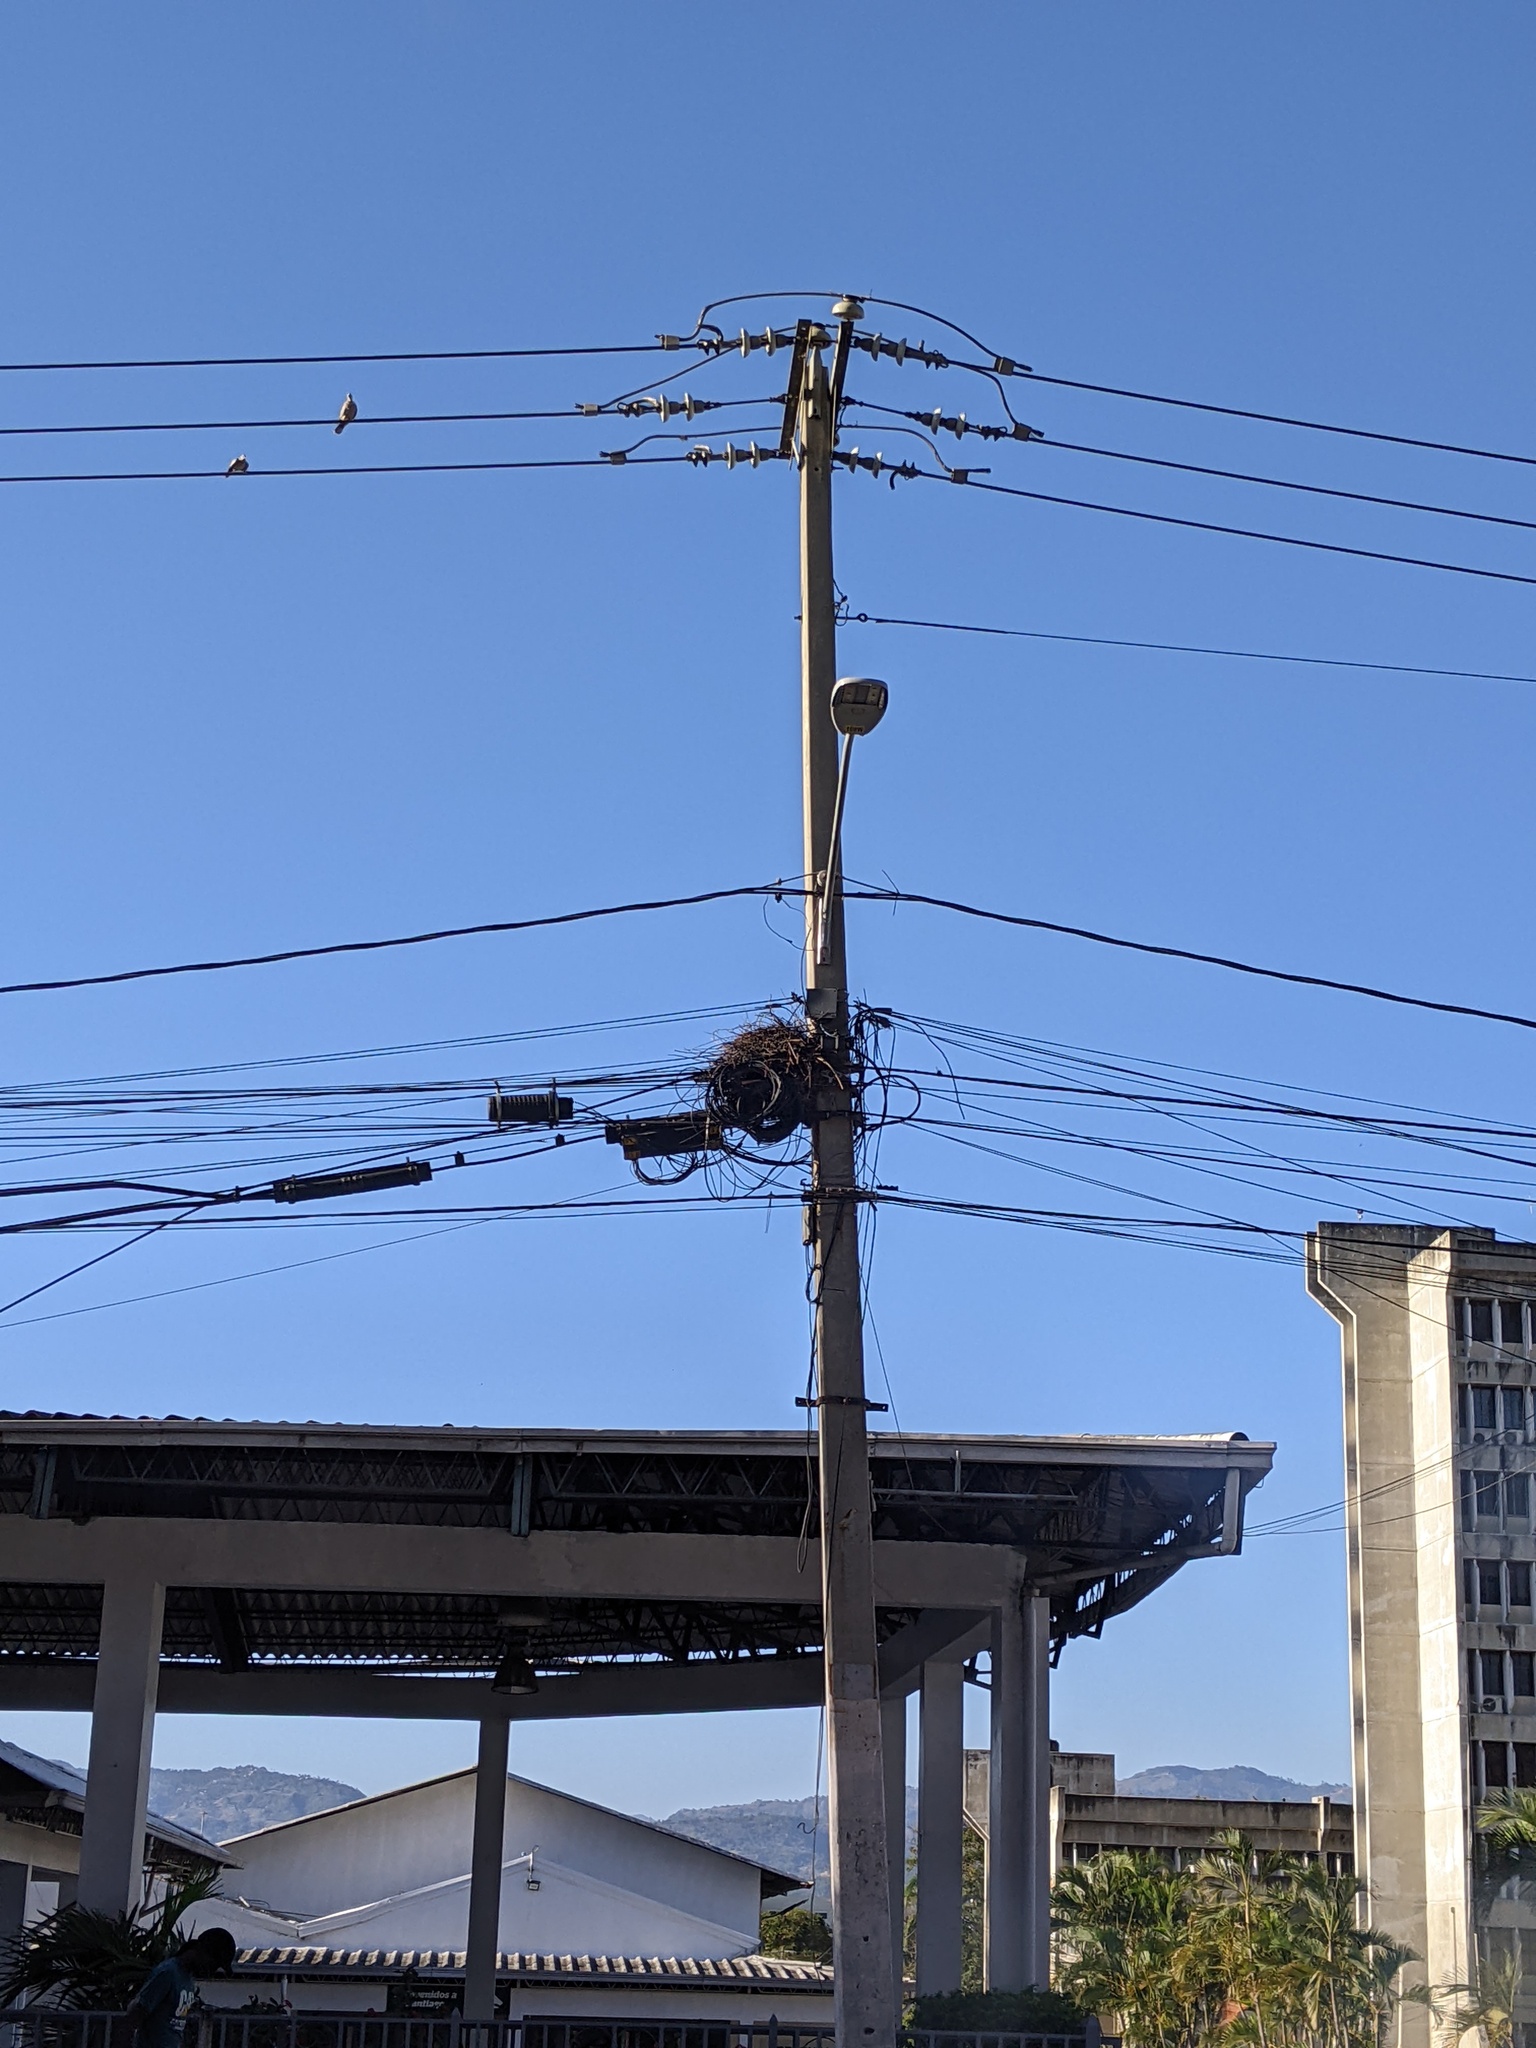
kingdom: Animalia
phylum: Chordata
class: Aves
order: Passeriformes
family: Dulidae
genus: Dulus
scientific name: Dulus dominicus
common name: Palmchat
